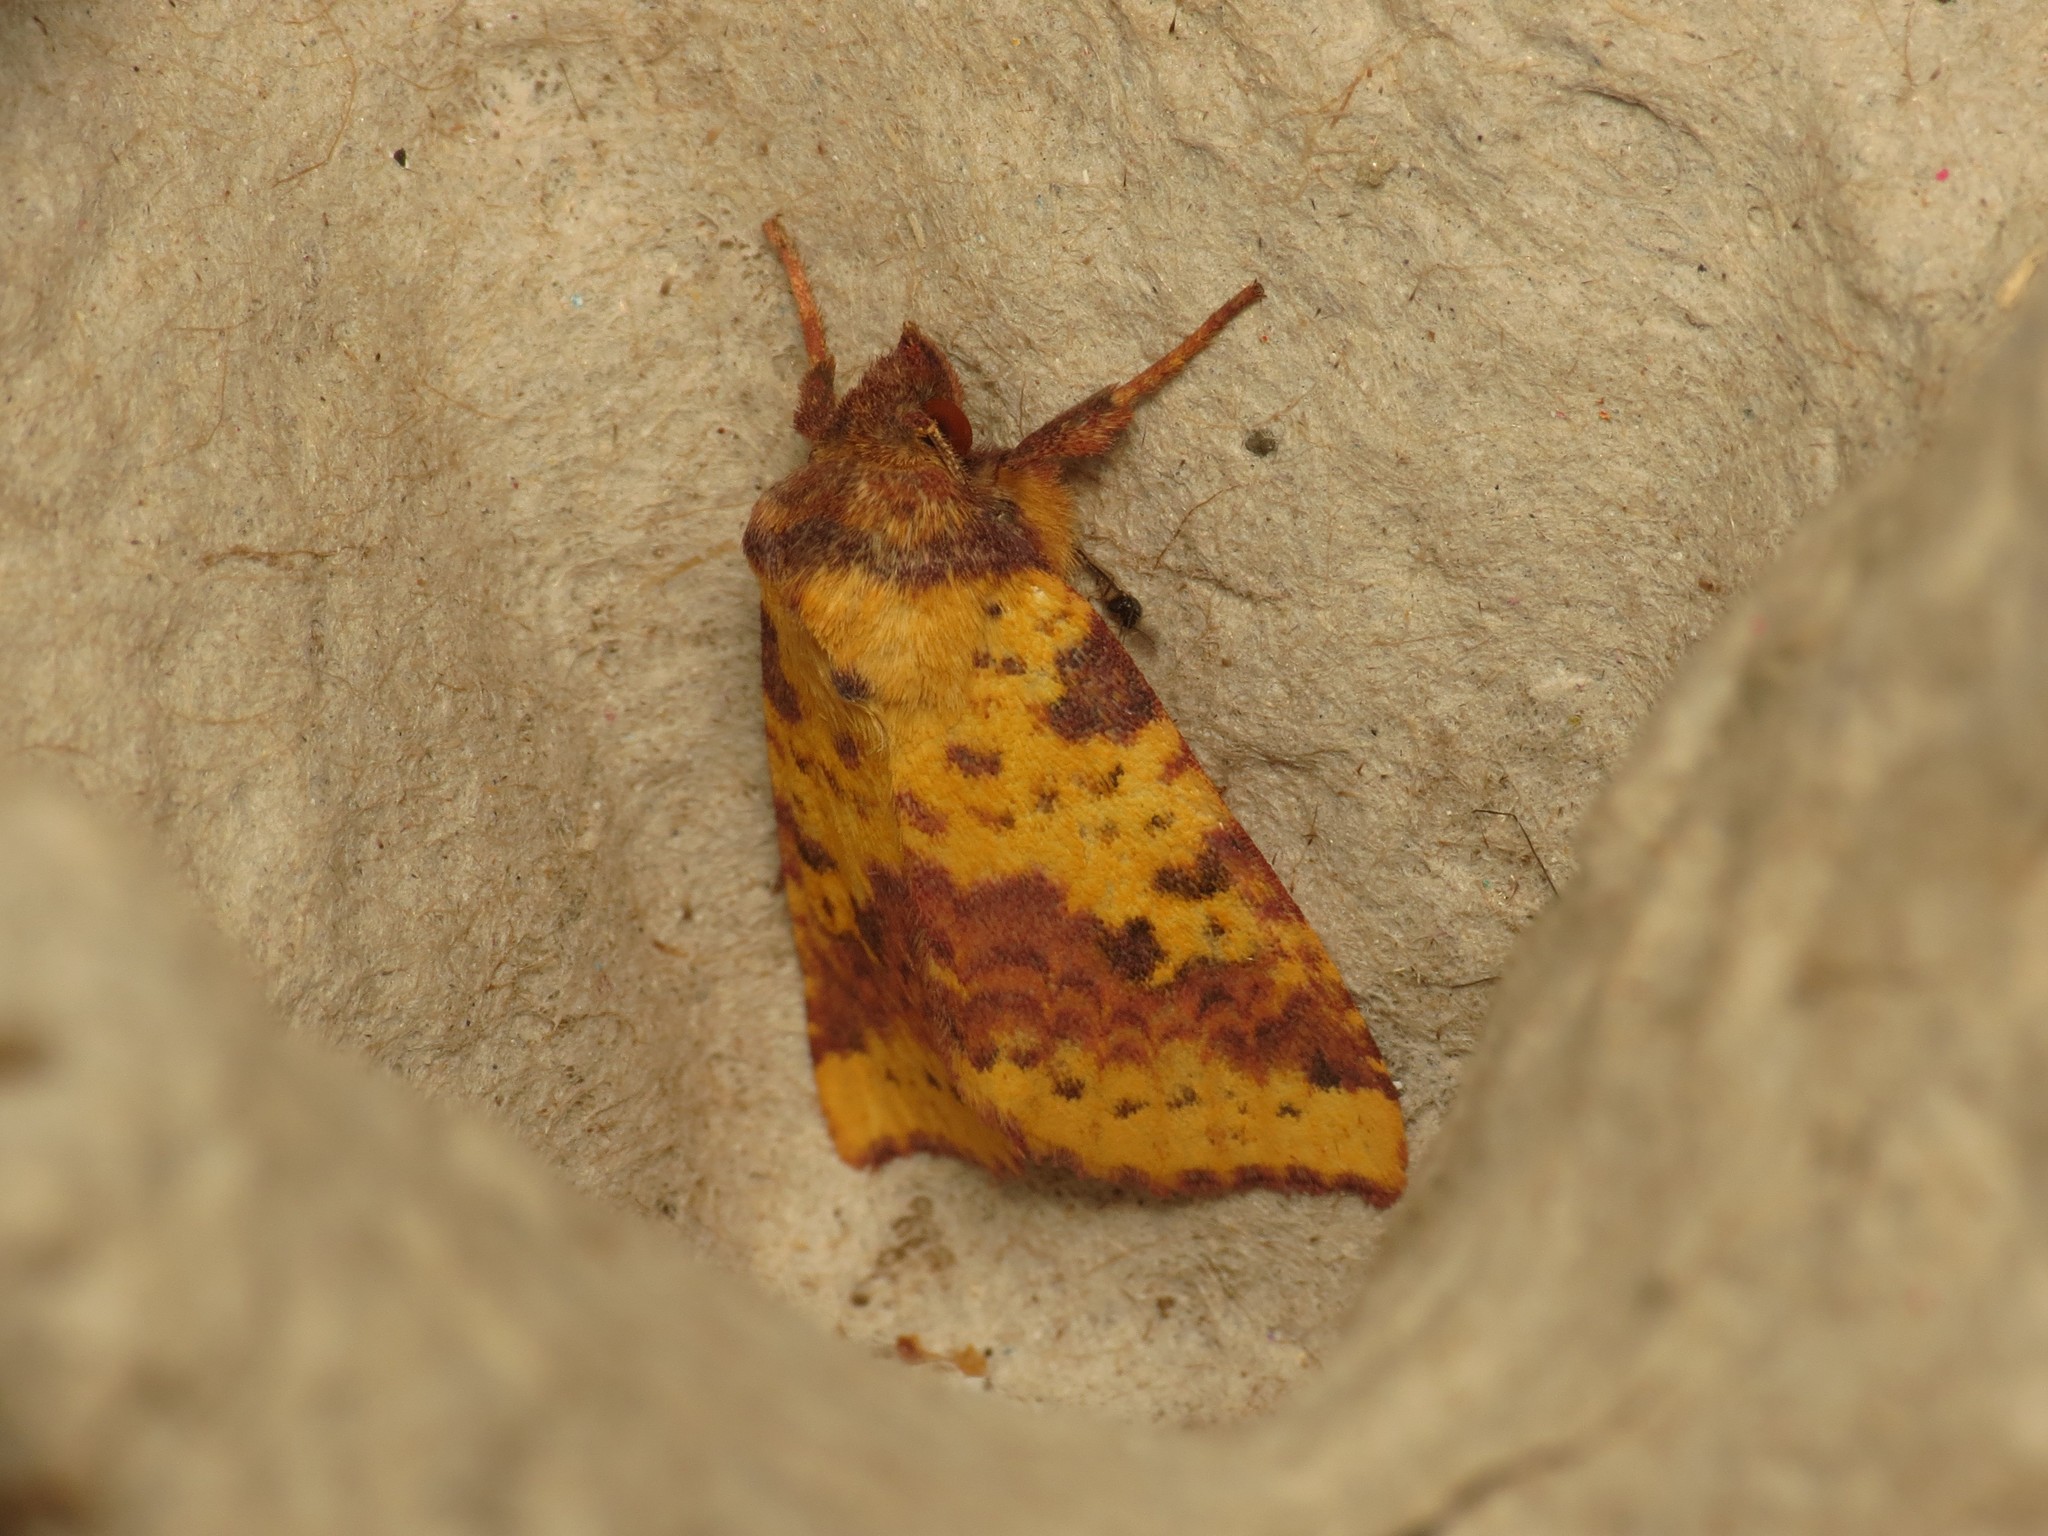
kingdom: Animalia
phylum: Arthropoda
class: Insecta
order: Lepidoptera
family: Noctuidae
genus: Xanthia
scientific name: Xanthia togata
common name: Pink-barred sallow
